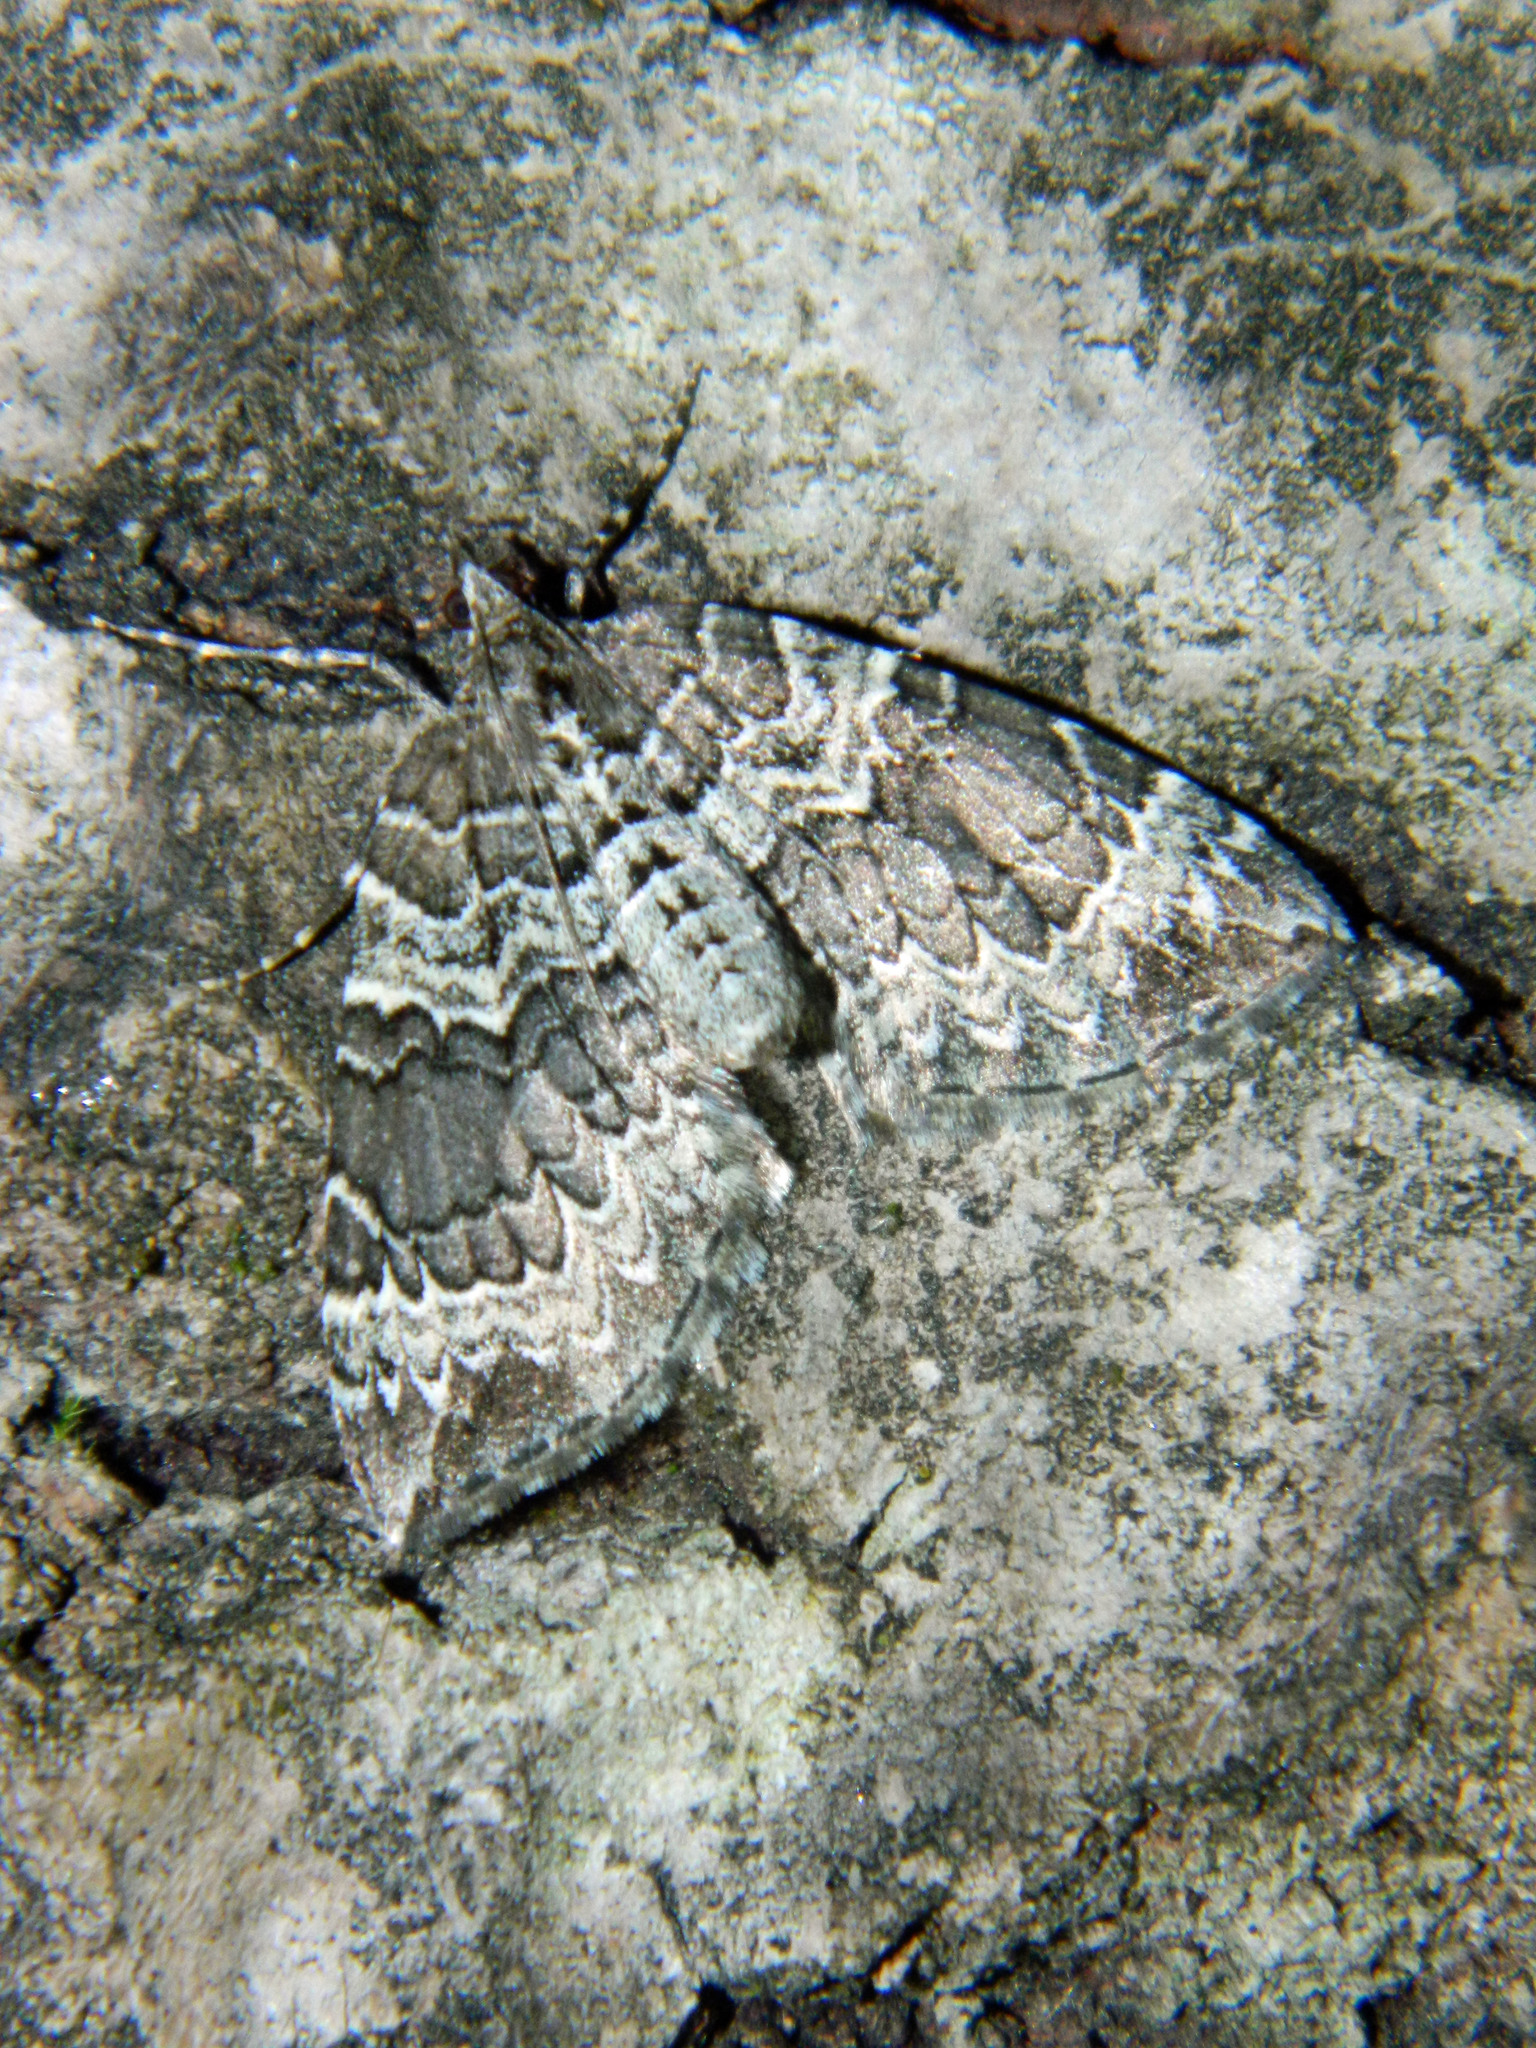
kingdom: Animalia
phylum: Arthropoda
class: Insecta
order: Lepidoptera
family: Geometridae
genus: Eulithis
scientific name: Eulithis explanata
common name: White eulithis
